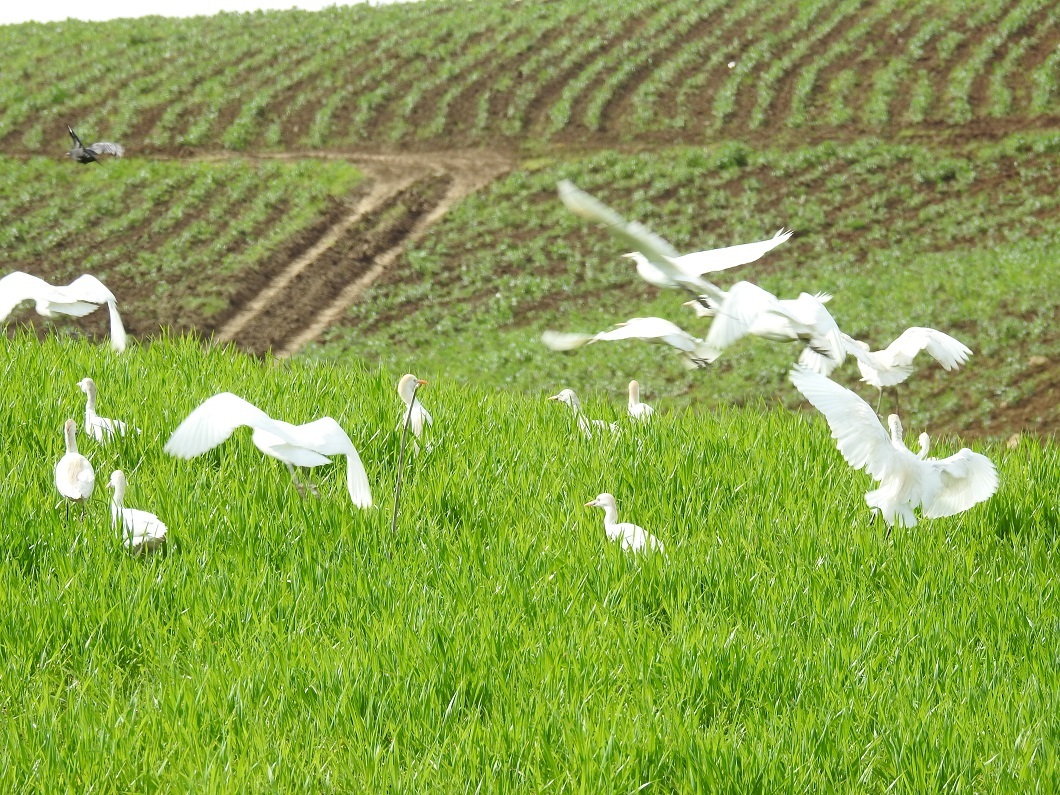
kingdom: Animalia
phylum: Chordata
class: Aves
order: Pelecaniformes
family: Ardeidae
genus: Bubulcus
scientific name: Bubulcus ibis
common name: Cattle egret
